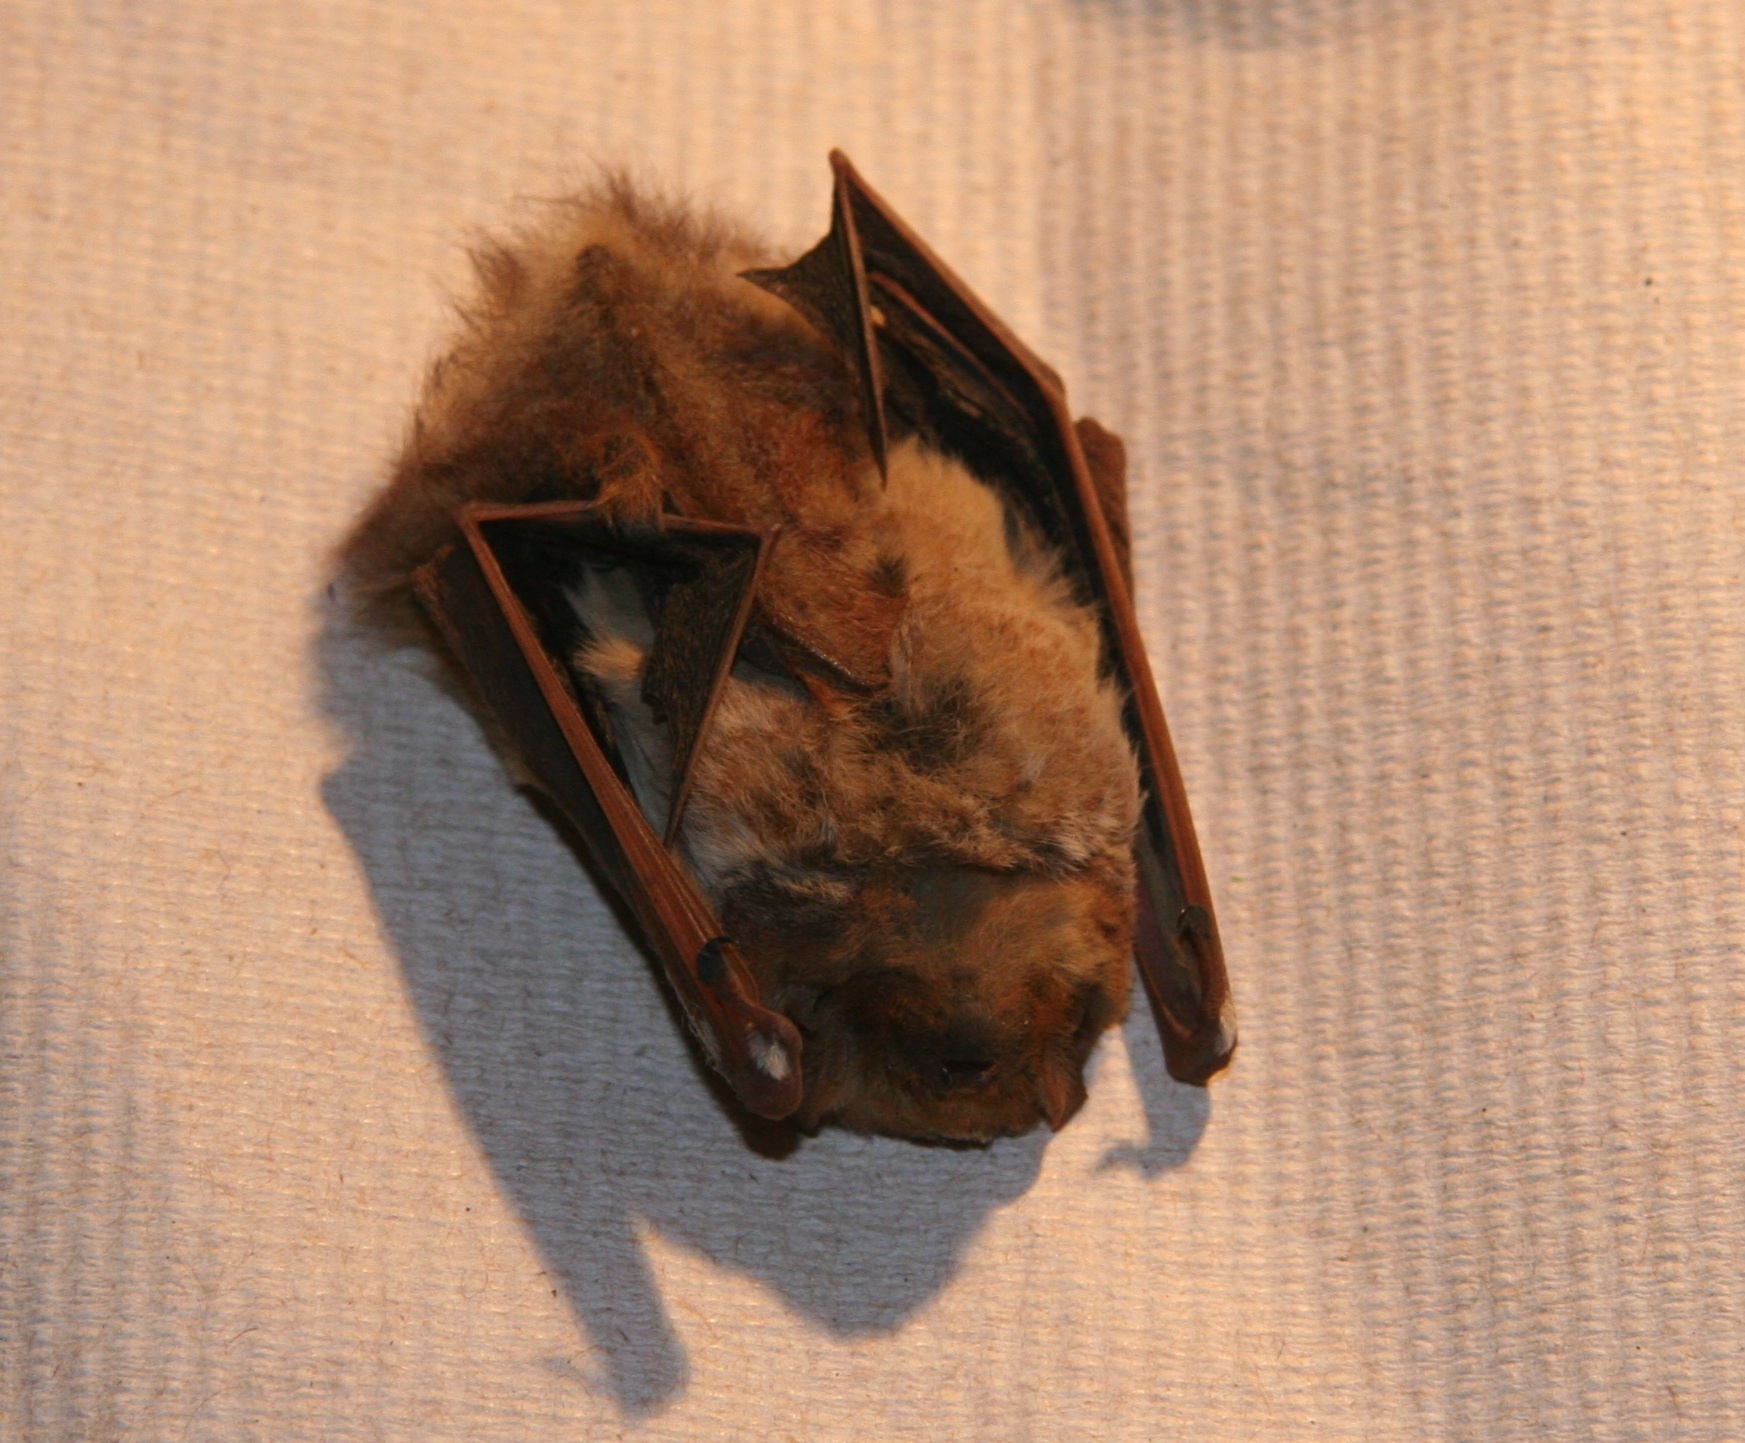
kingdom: Animalia
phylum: Chordata
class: Mammalia
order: Chiroptera
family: Vespertilionidae
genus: Lasiurus
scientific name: Lasiurus
